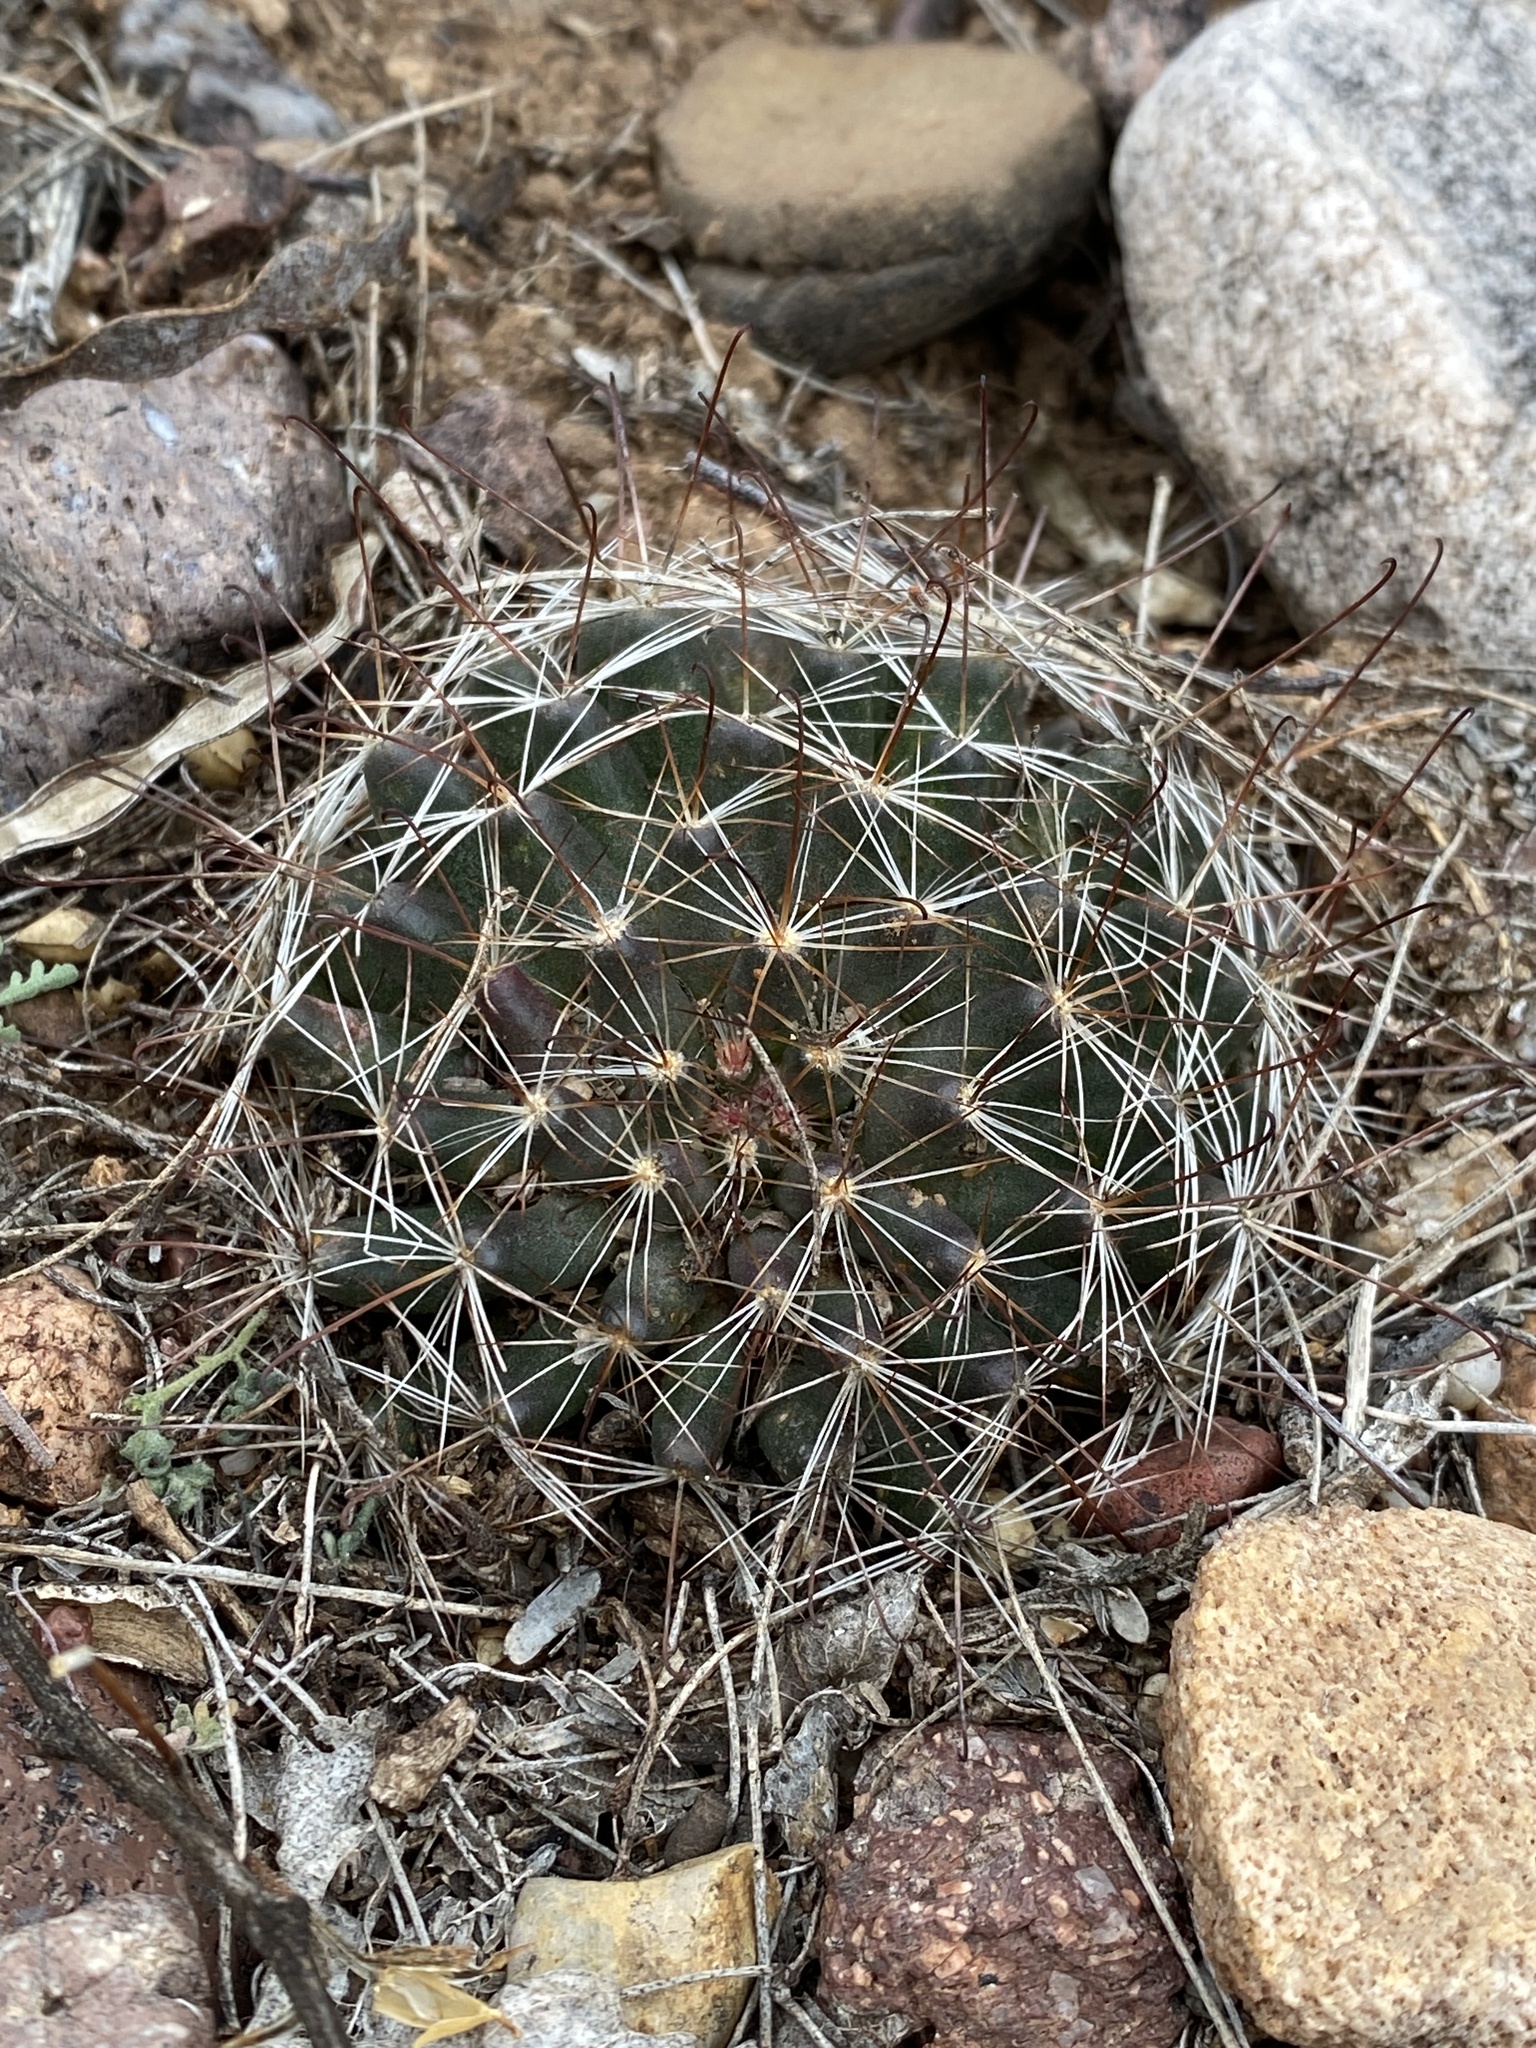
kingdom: Plantae
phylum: Tracheophyta
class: Magnoliopsida
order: Caryophyllales
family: Cactaceae
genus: Cochemiea
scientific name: Cochemiea wrightii
